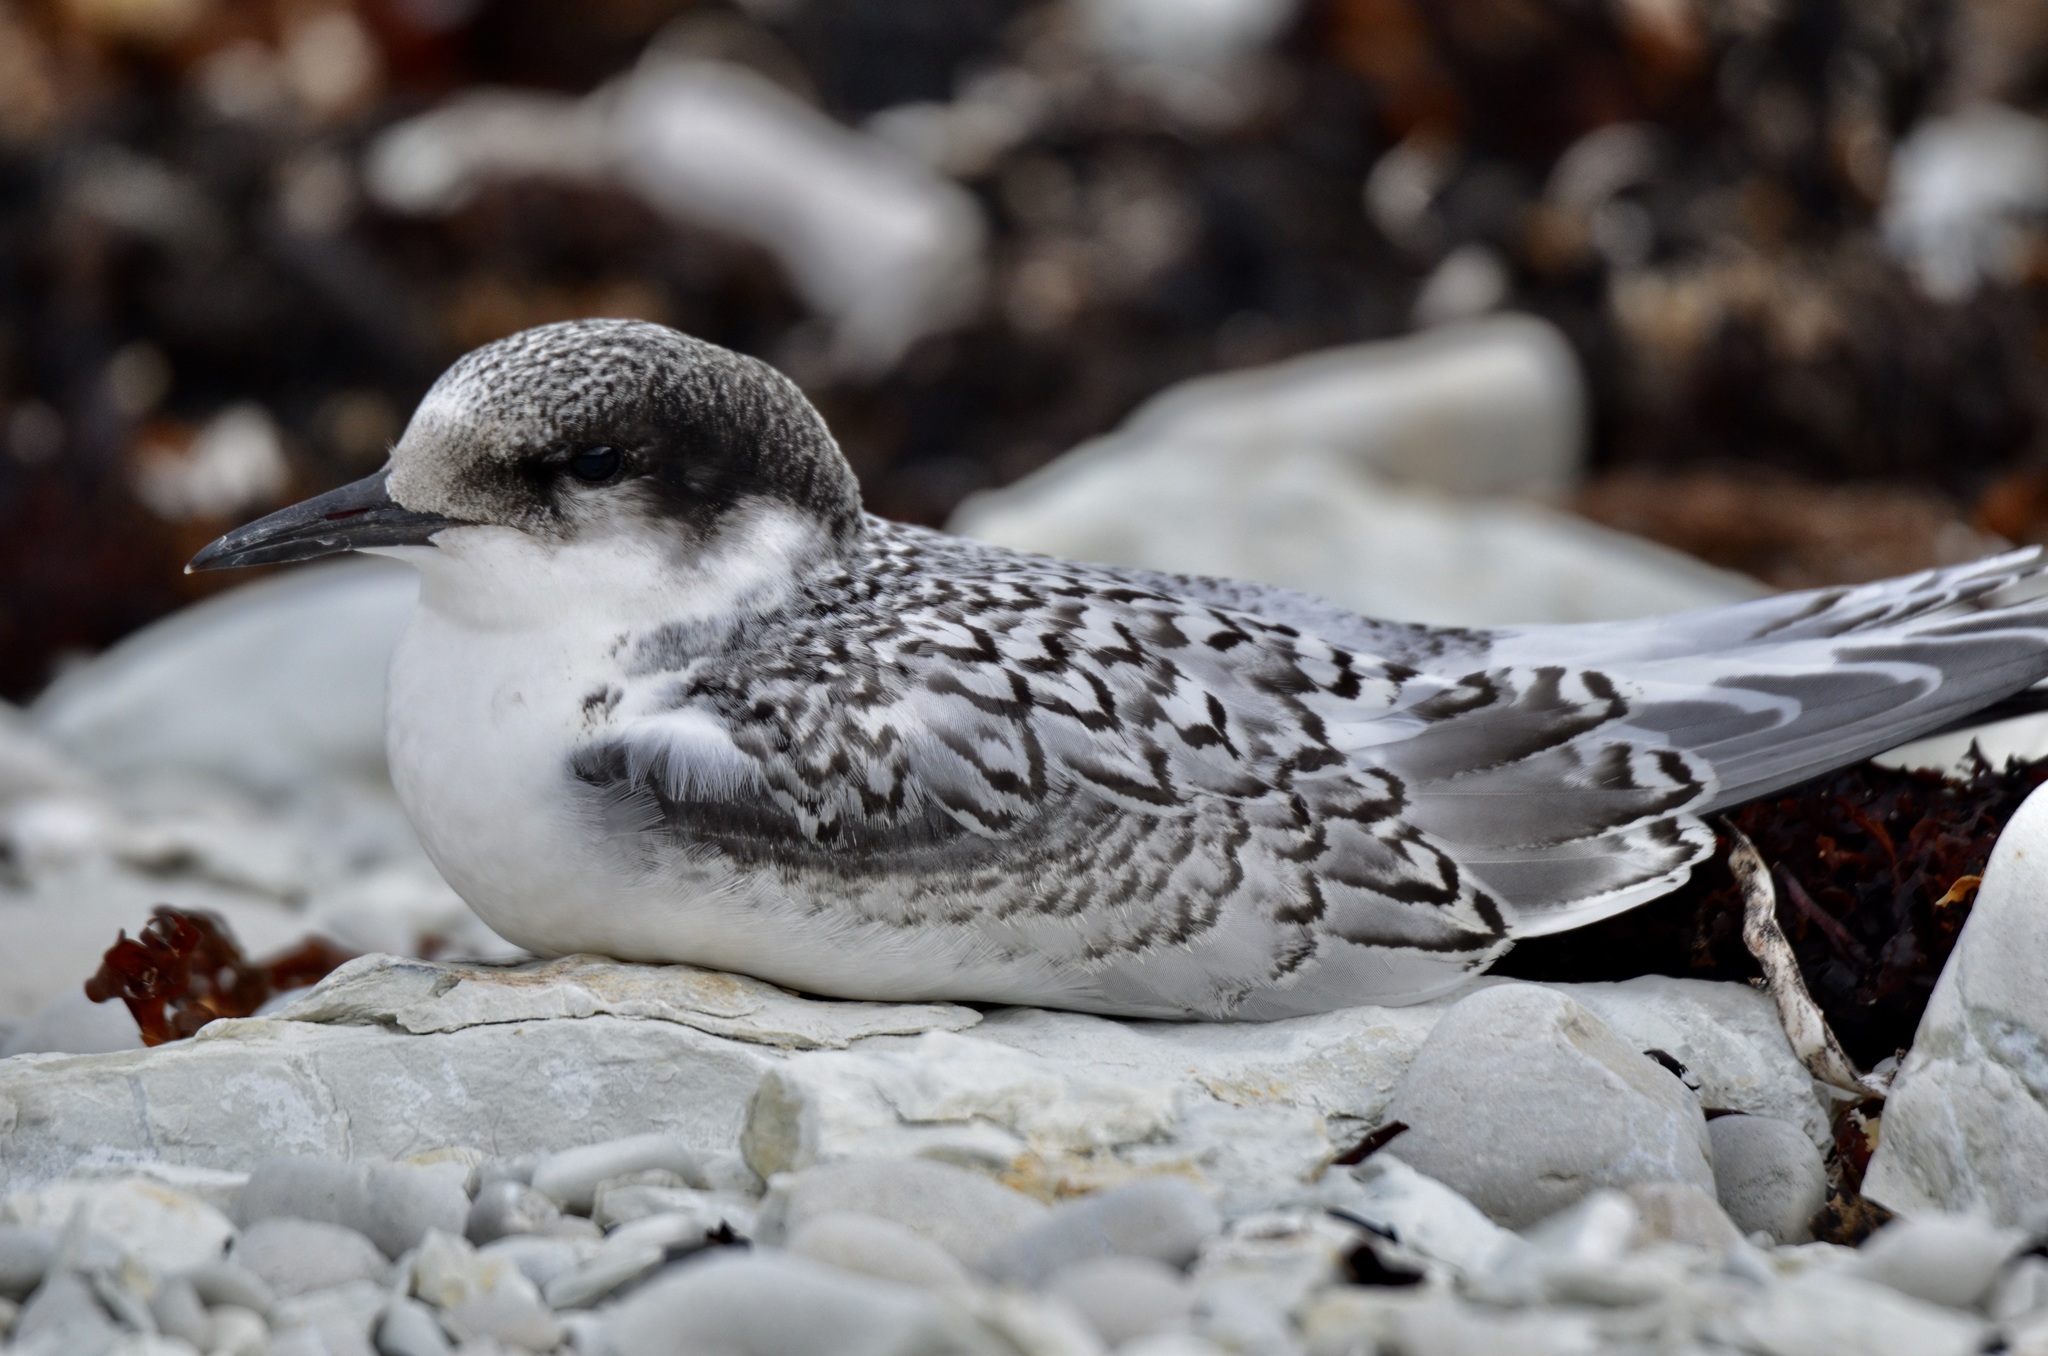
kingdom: Animalia
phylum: Chordata
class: Aves
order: Charadriiformes
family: Laridae
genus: Sterna
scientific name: Sterna striata
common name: White-fronted tern
